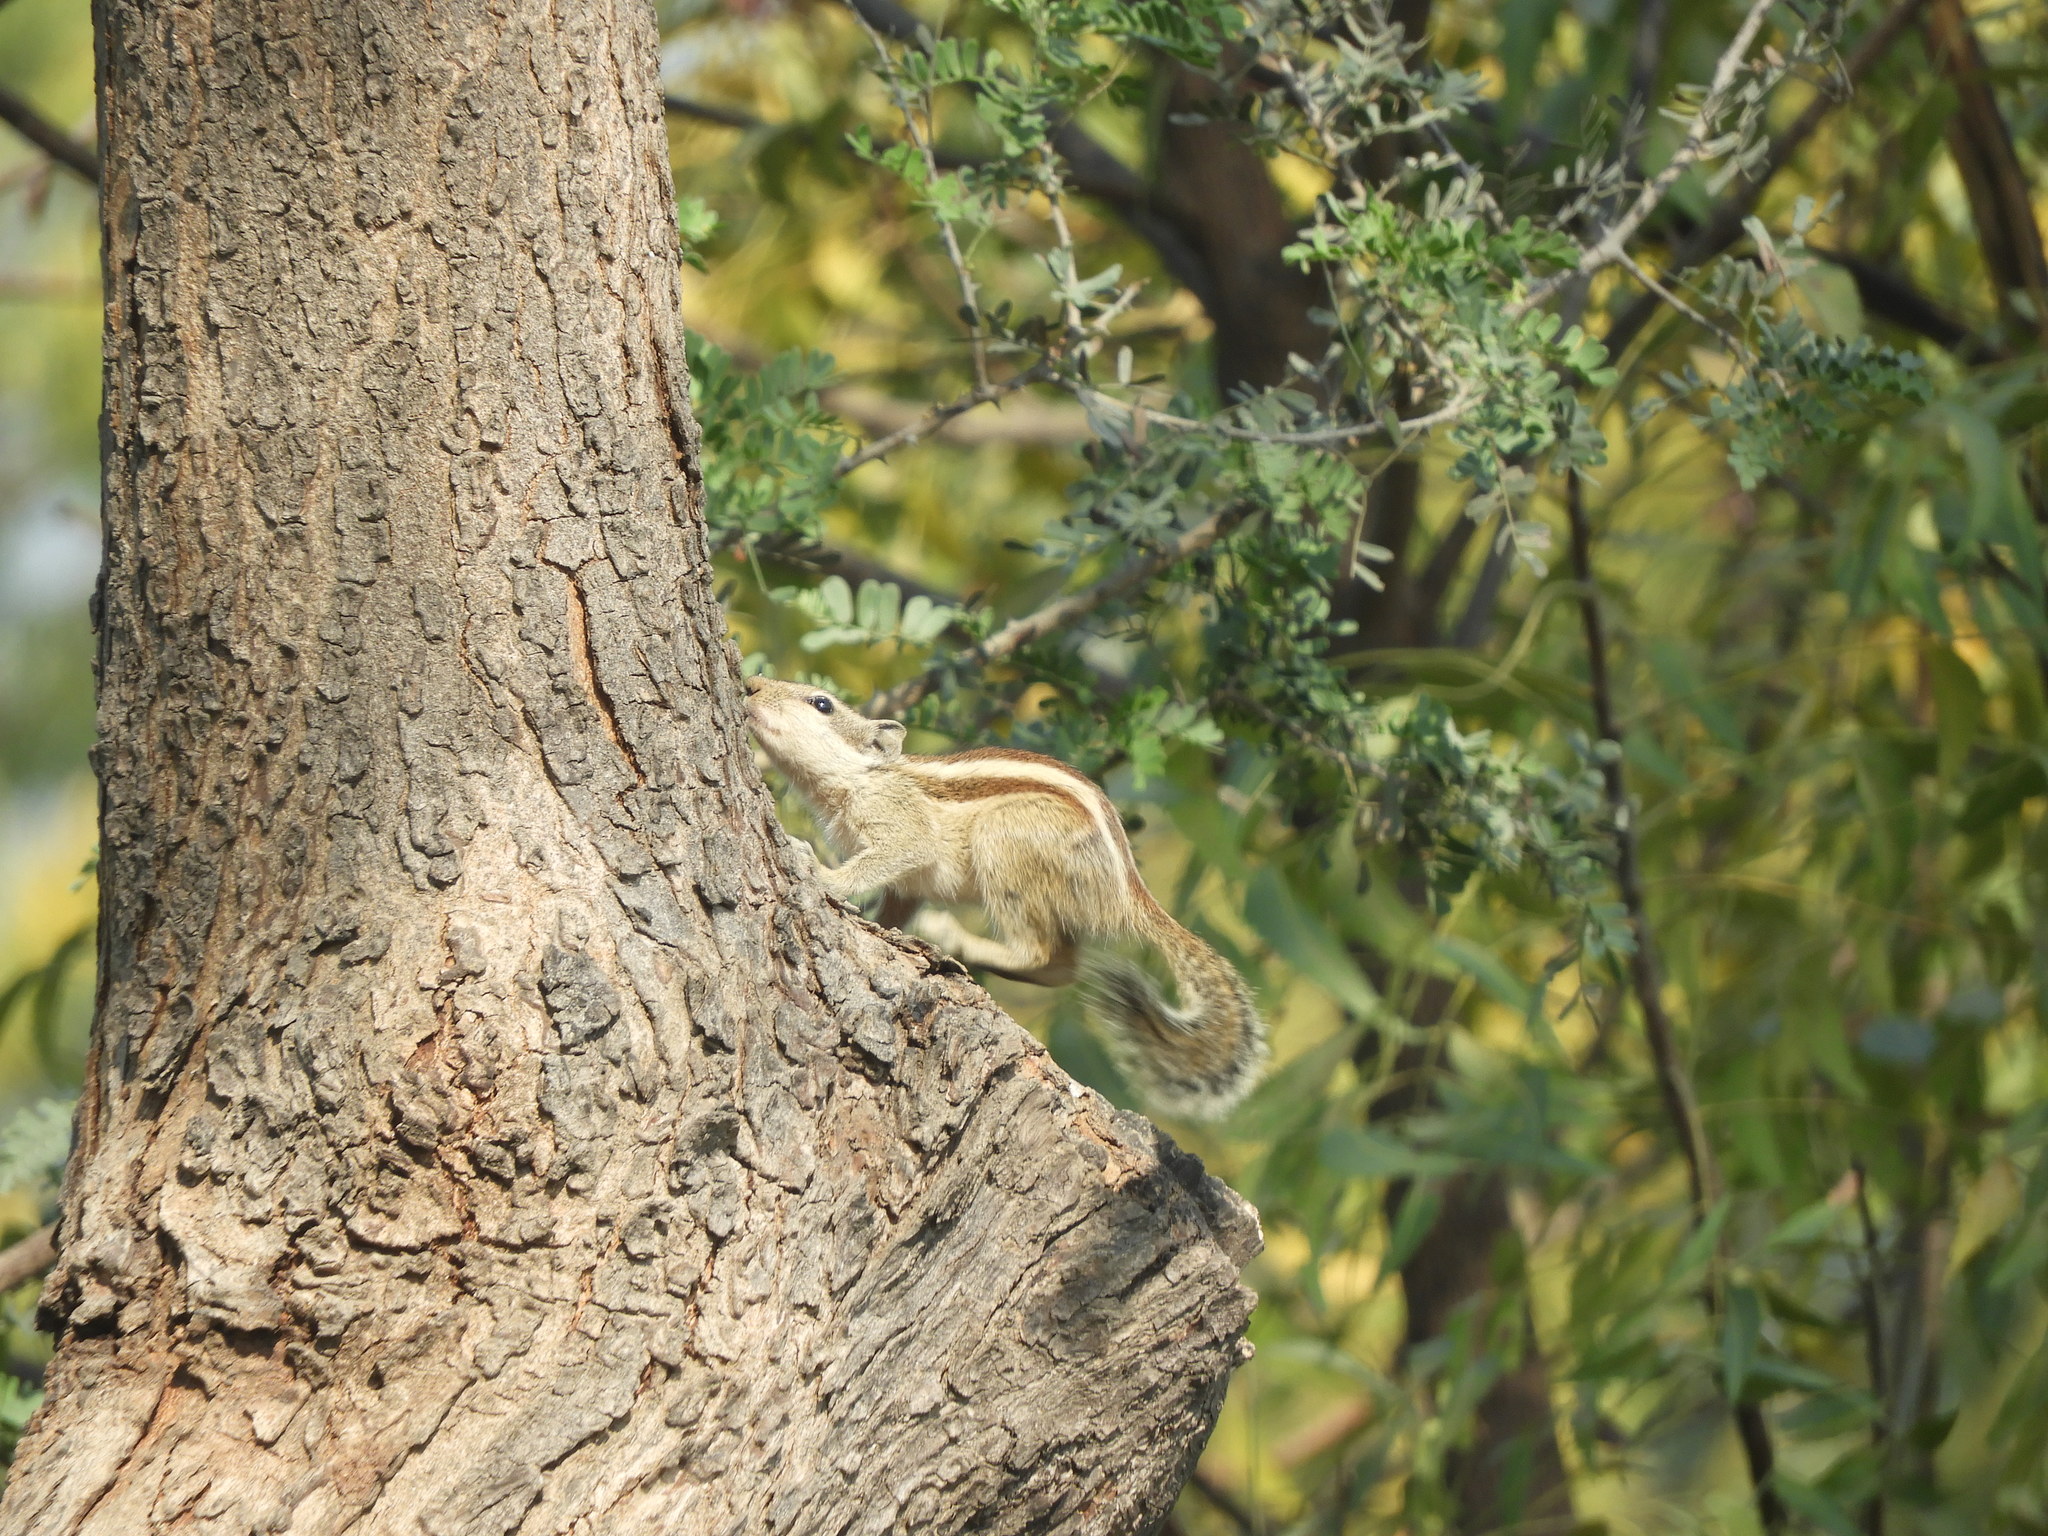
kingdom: Animalia
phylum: Chordata
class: Mammalia
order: Rodentia
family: Sciuridae
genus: Funambulus
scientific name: Funambulus pennantii
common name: Northern palm squirrel
